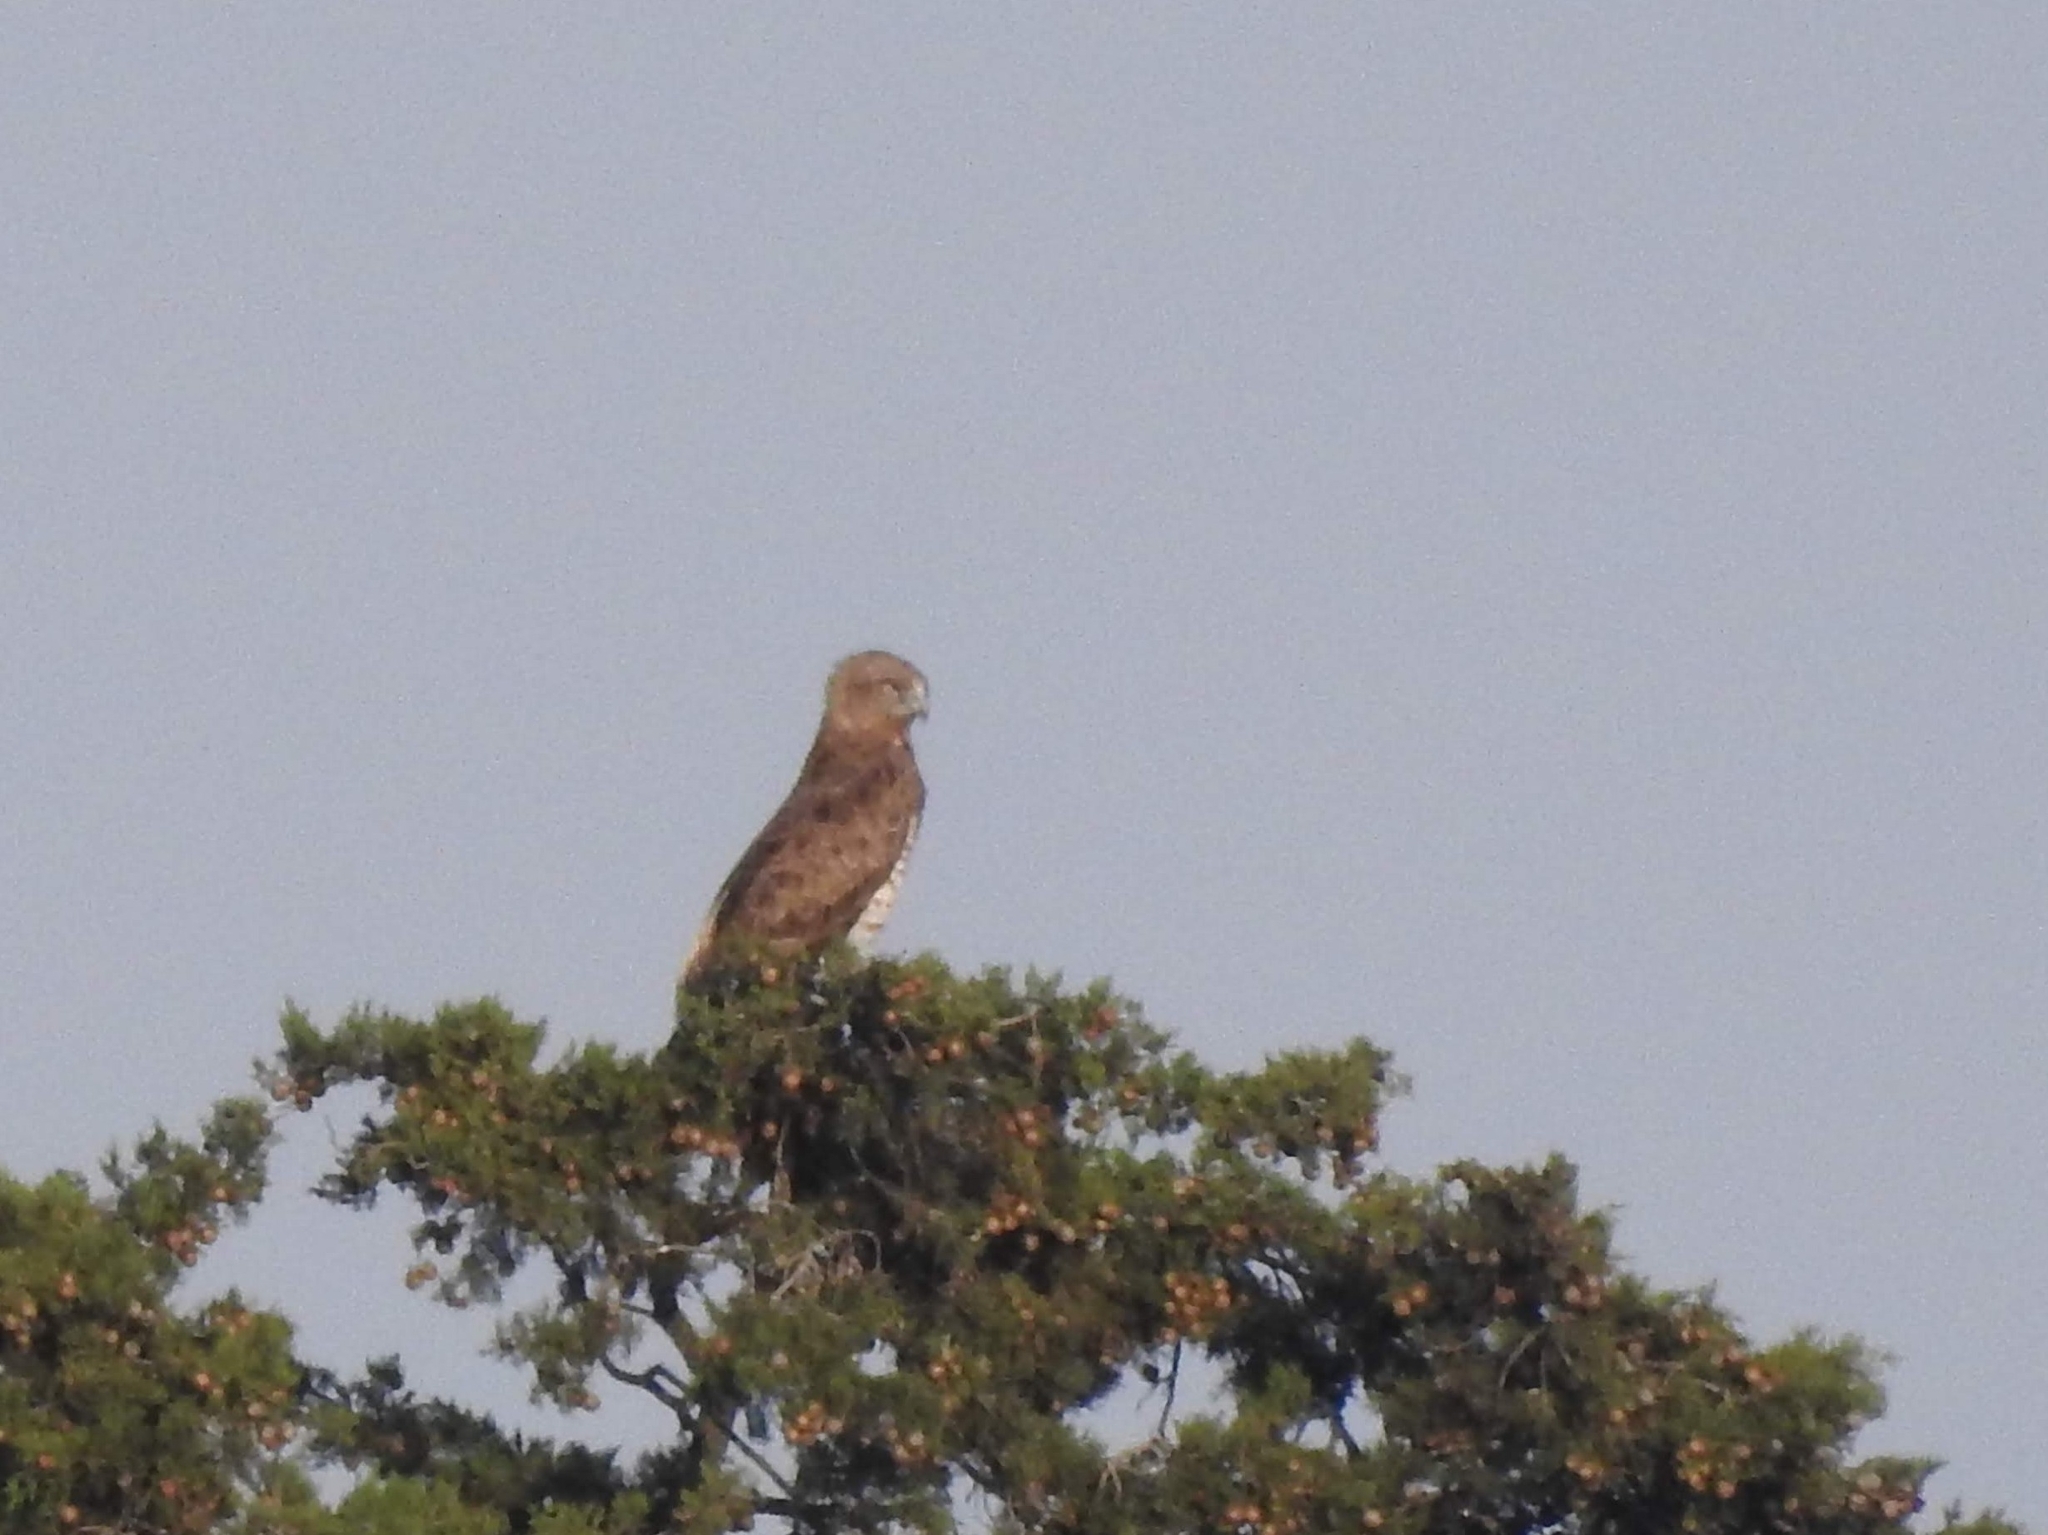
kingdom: Animalia
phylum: Chordata
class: Aves
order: Accipitriformes
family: Accipitridae
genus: Circaetus
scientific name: Circaetus gallicus
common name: Short-toed snake eagle
